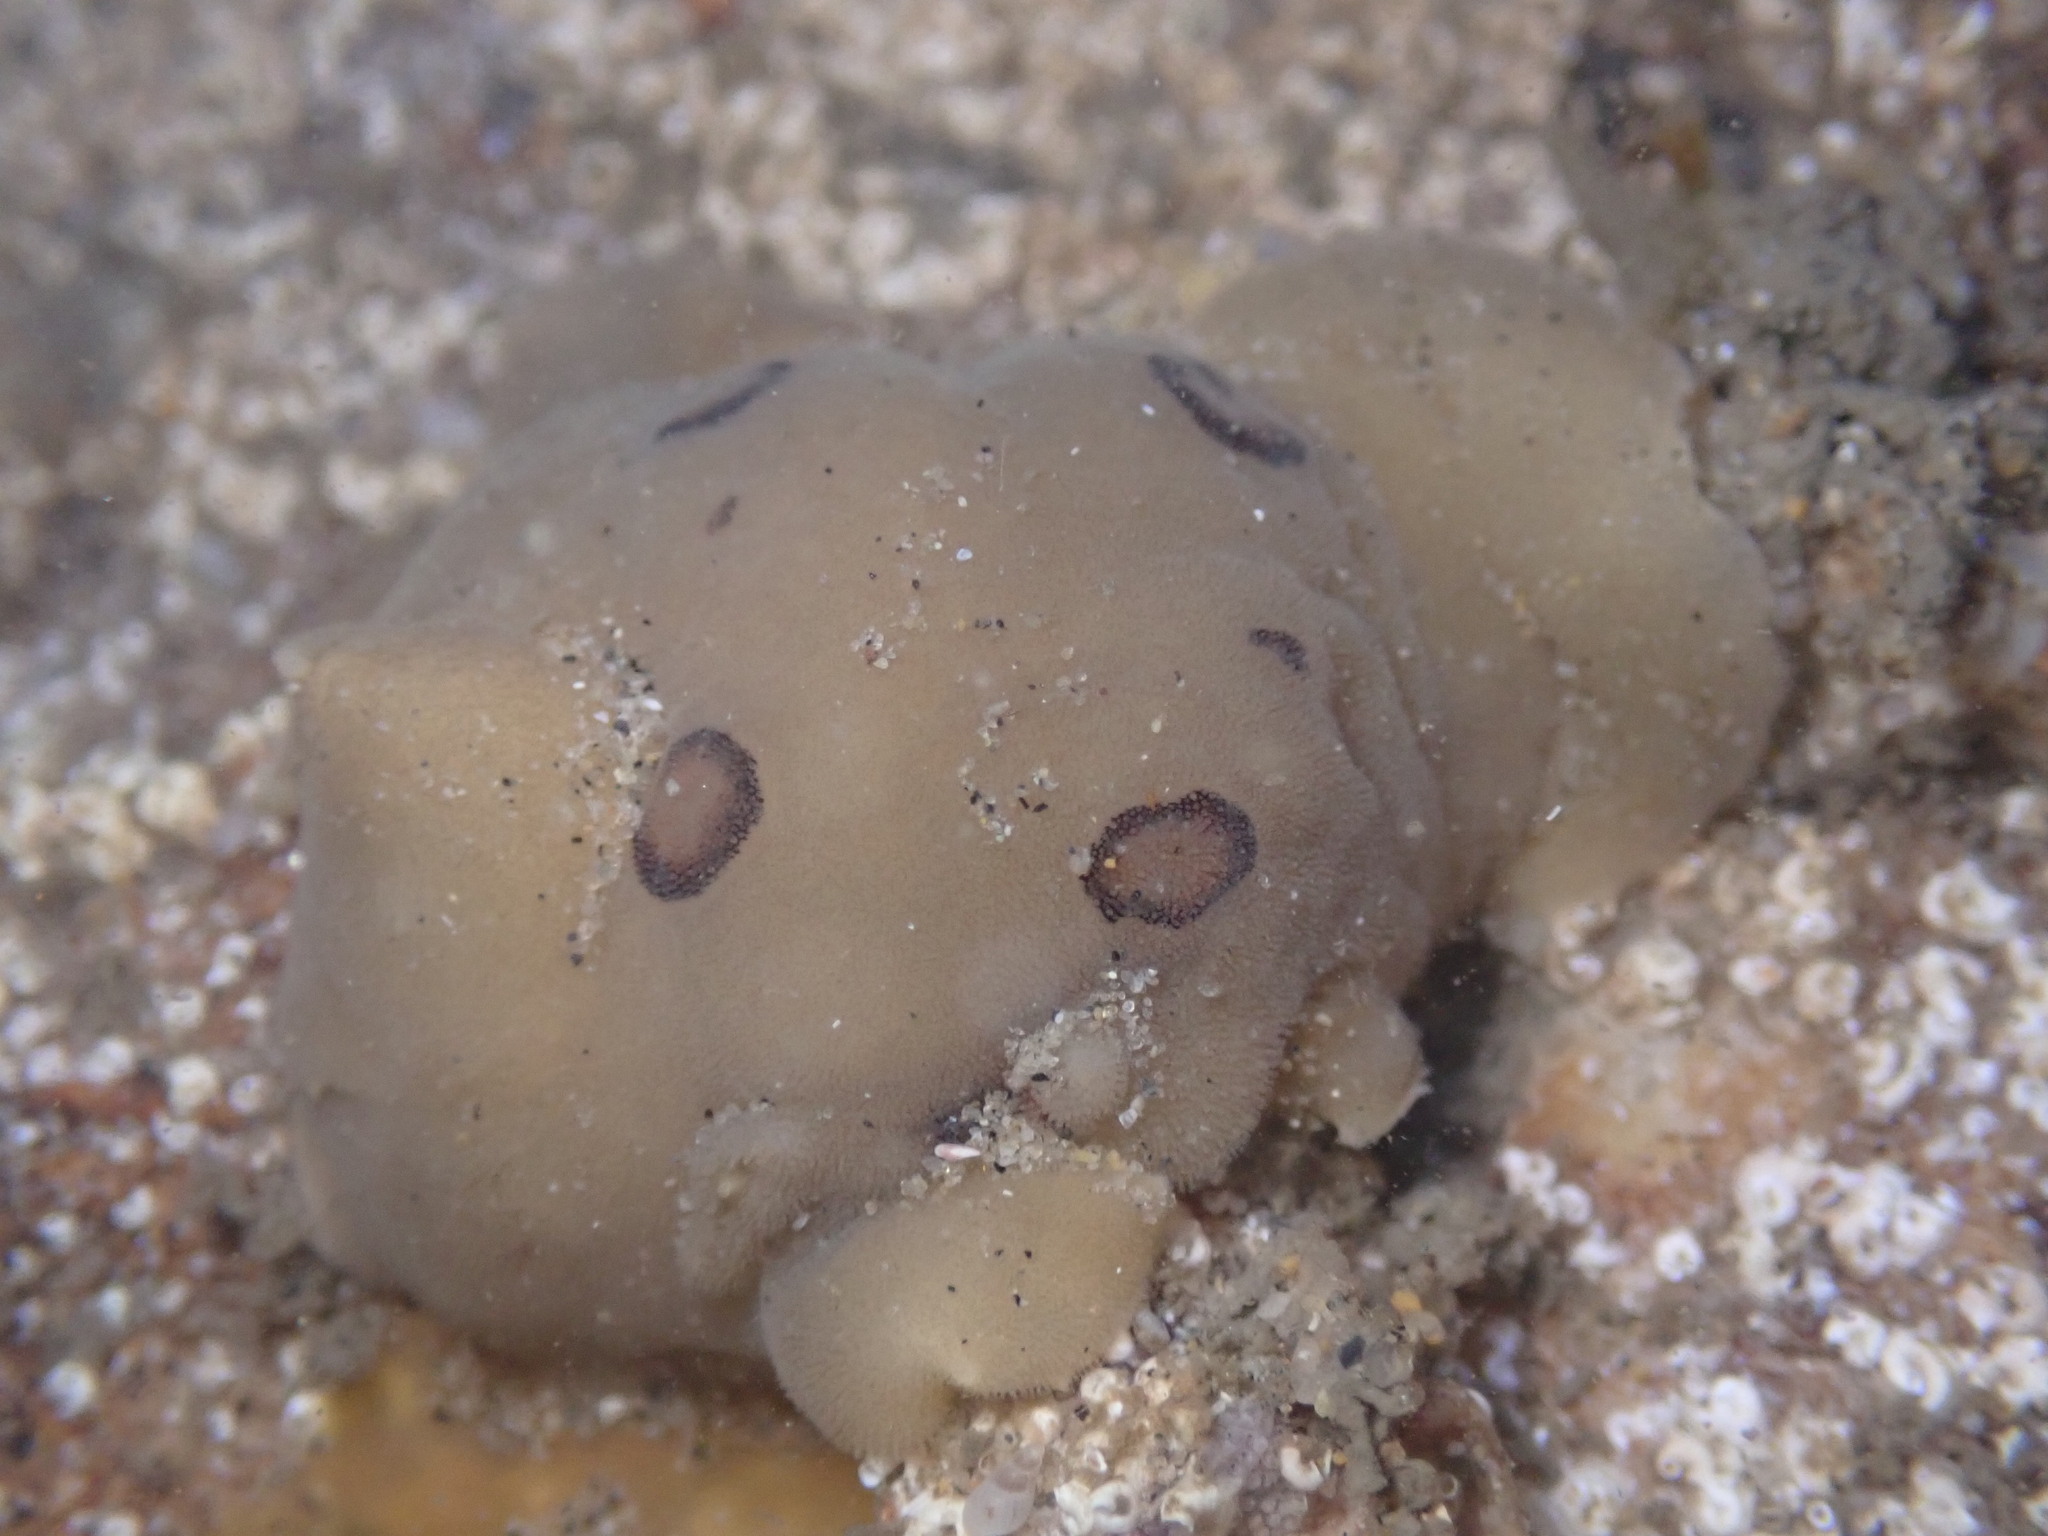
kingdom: Animalia
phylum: Mollusca
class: Gastropoda
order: Nudibranchia
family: Discodorididae
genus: Diaulula
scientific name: Diaulula sandiegensis
